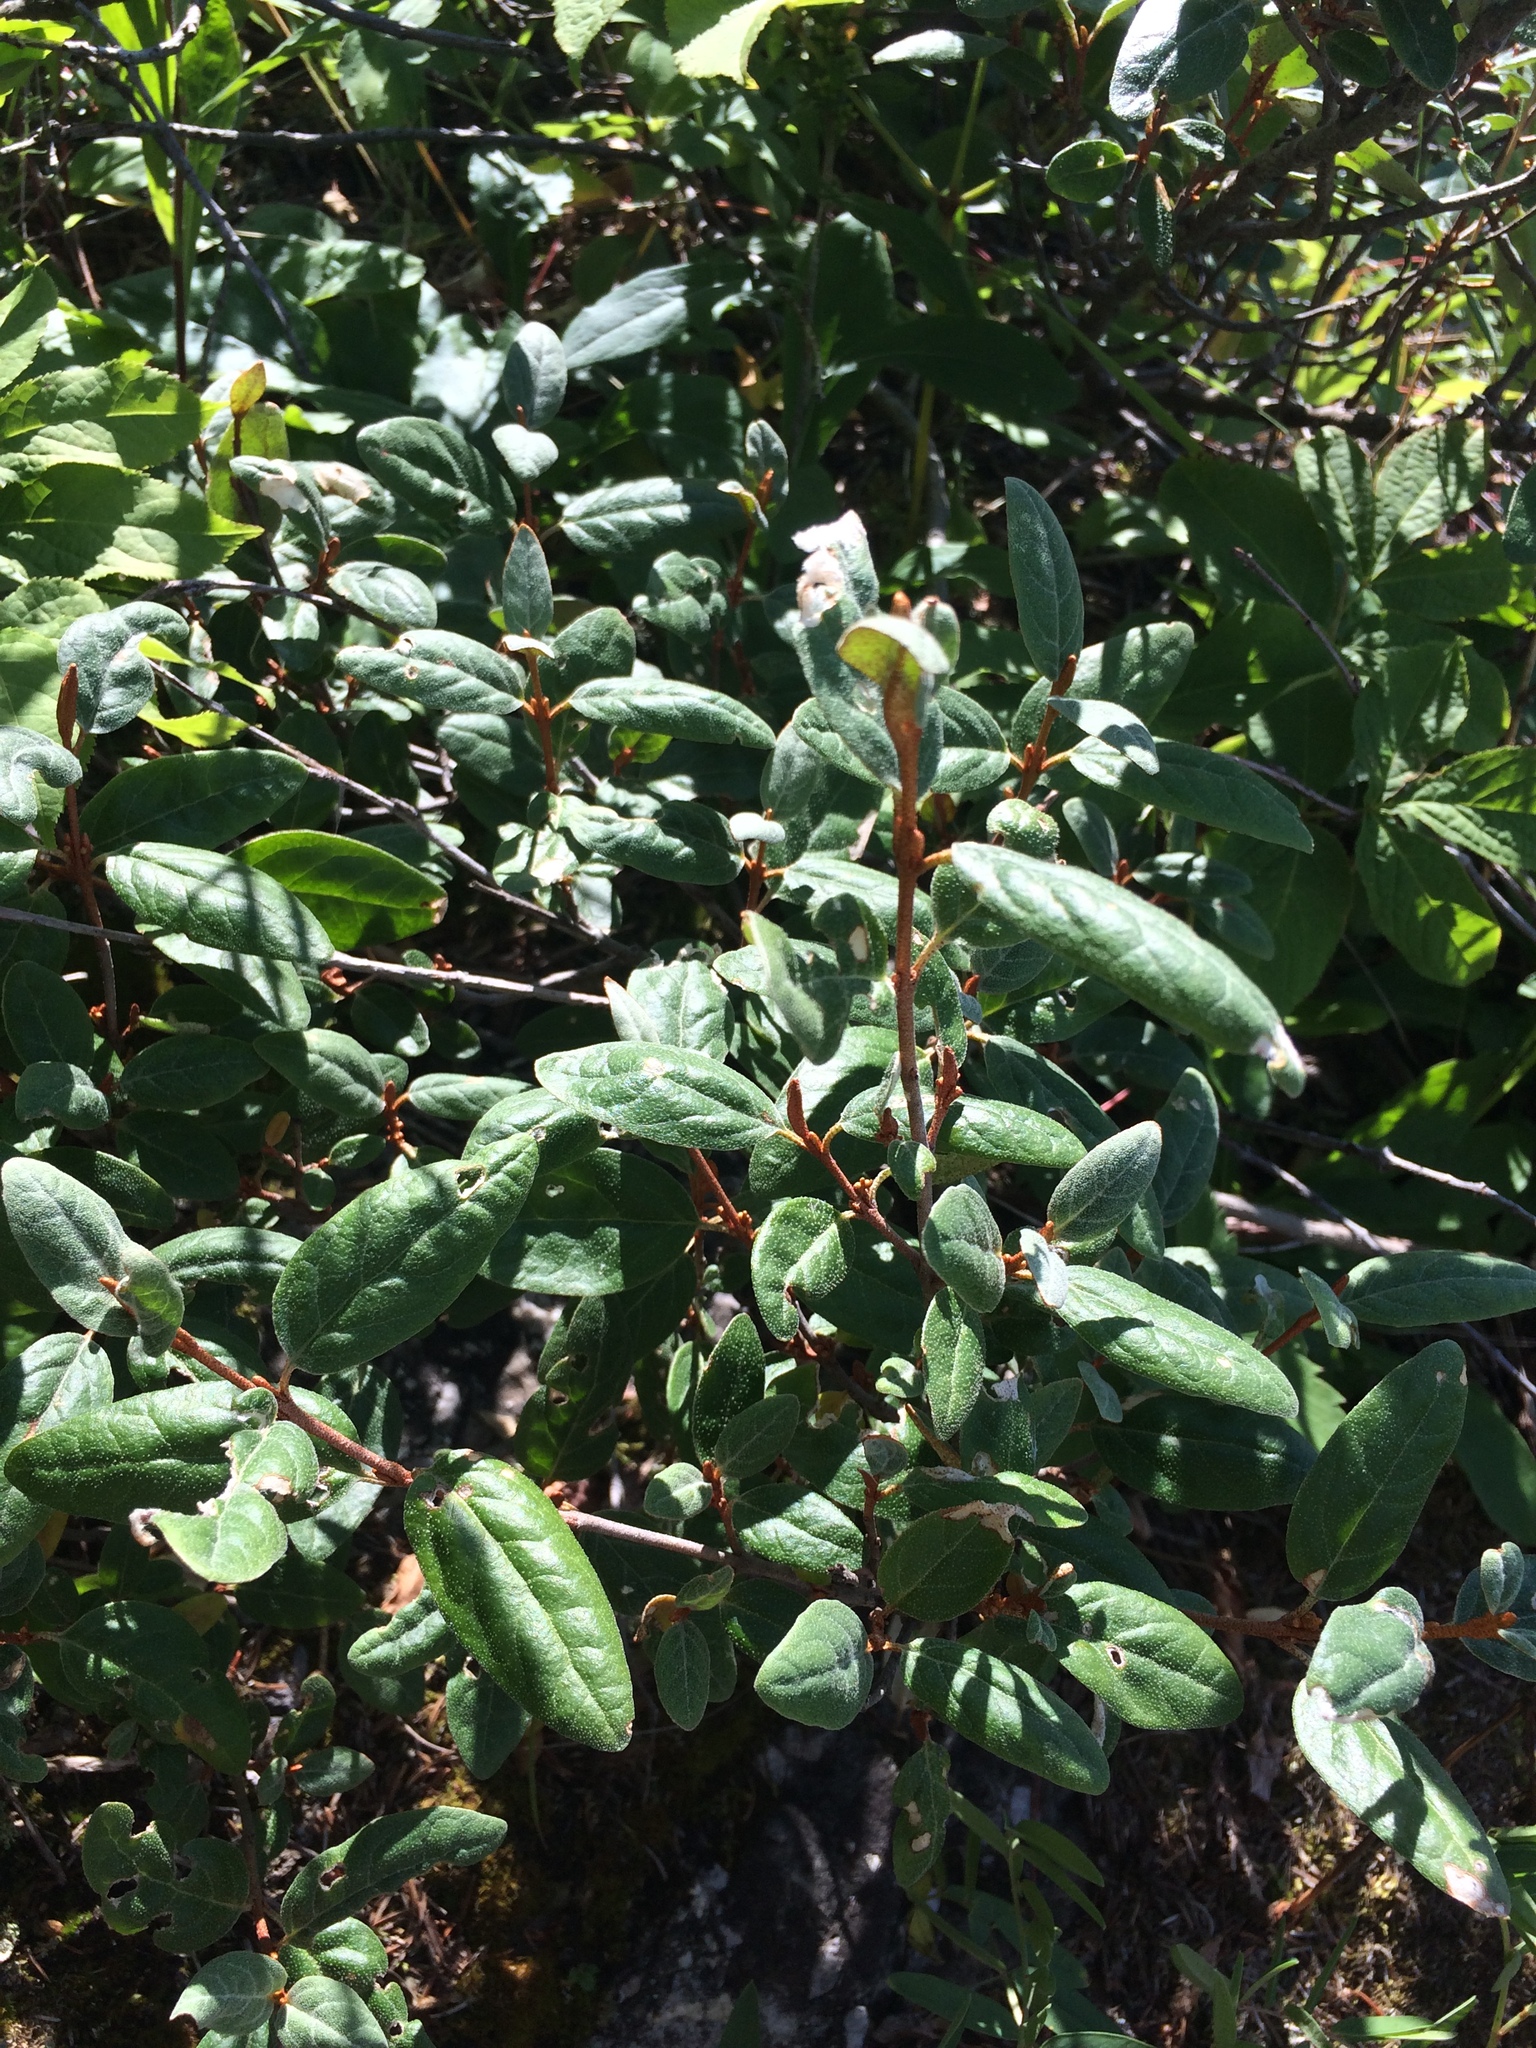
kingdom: Plantae
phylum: Tracheophyta
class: Magnoliopsida
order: Rosales
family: Elaeagnaceae
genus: Shepherdia
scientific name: Shepherdia canadensis
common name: Soapberry
